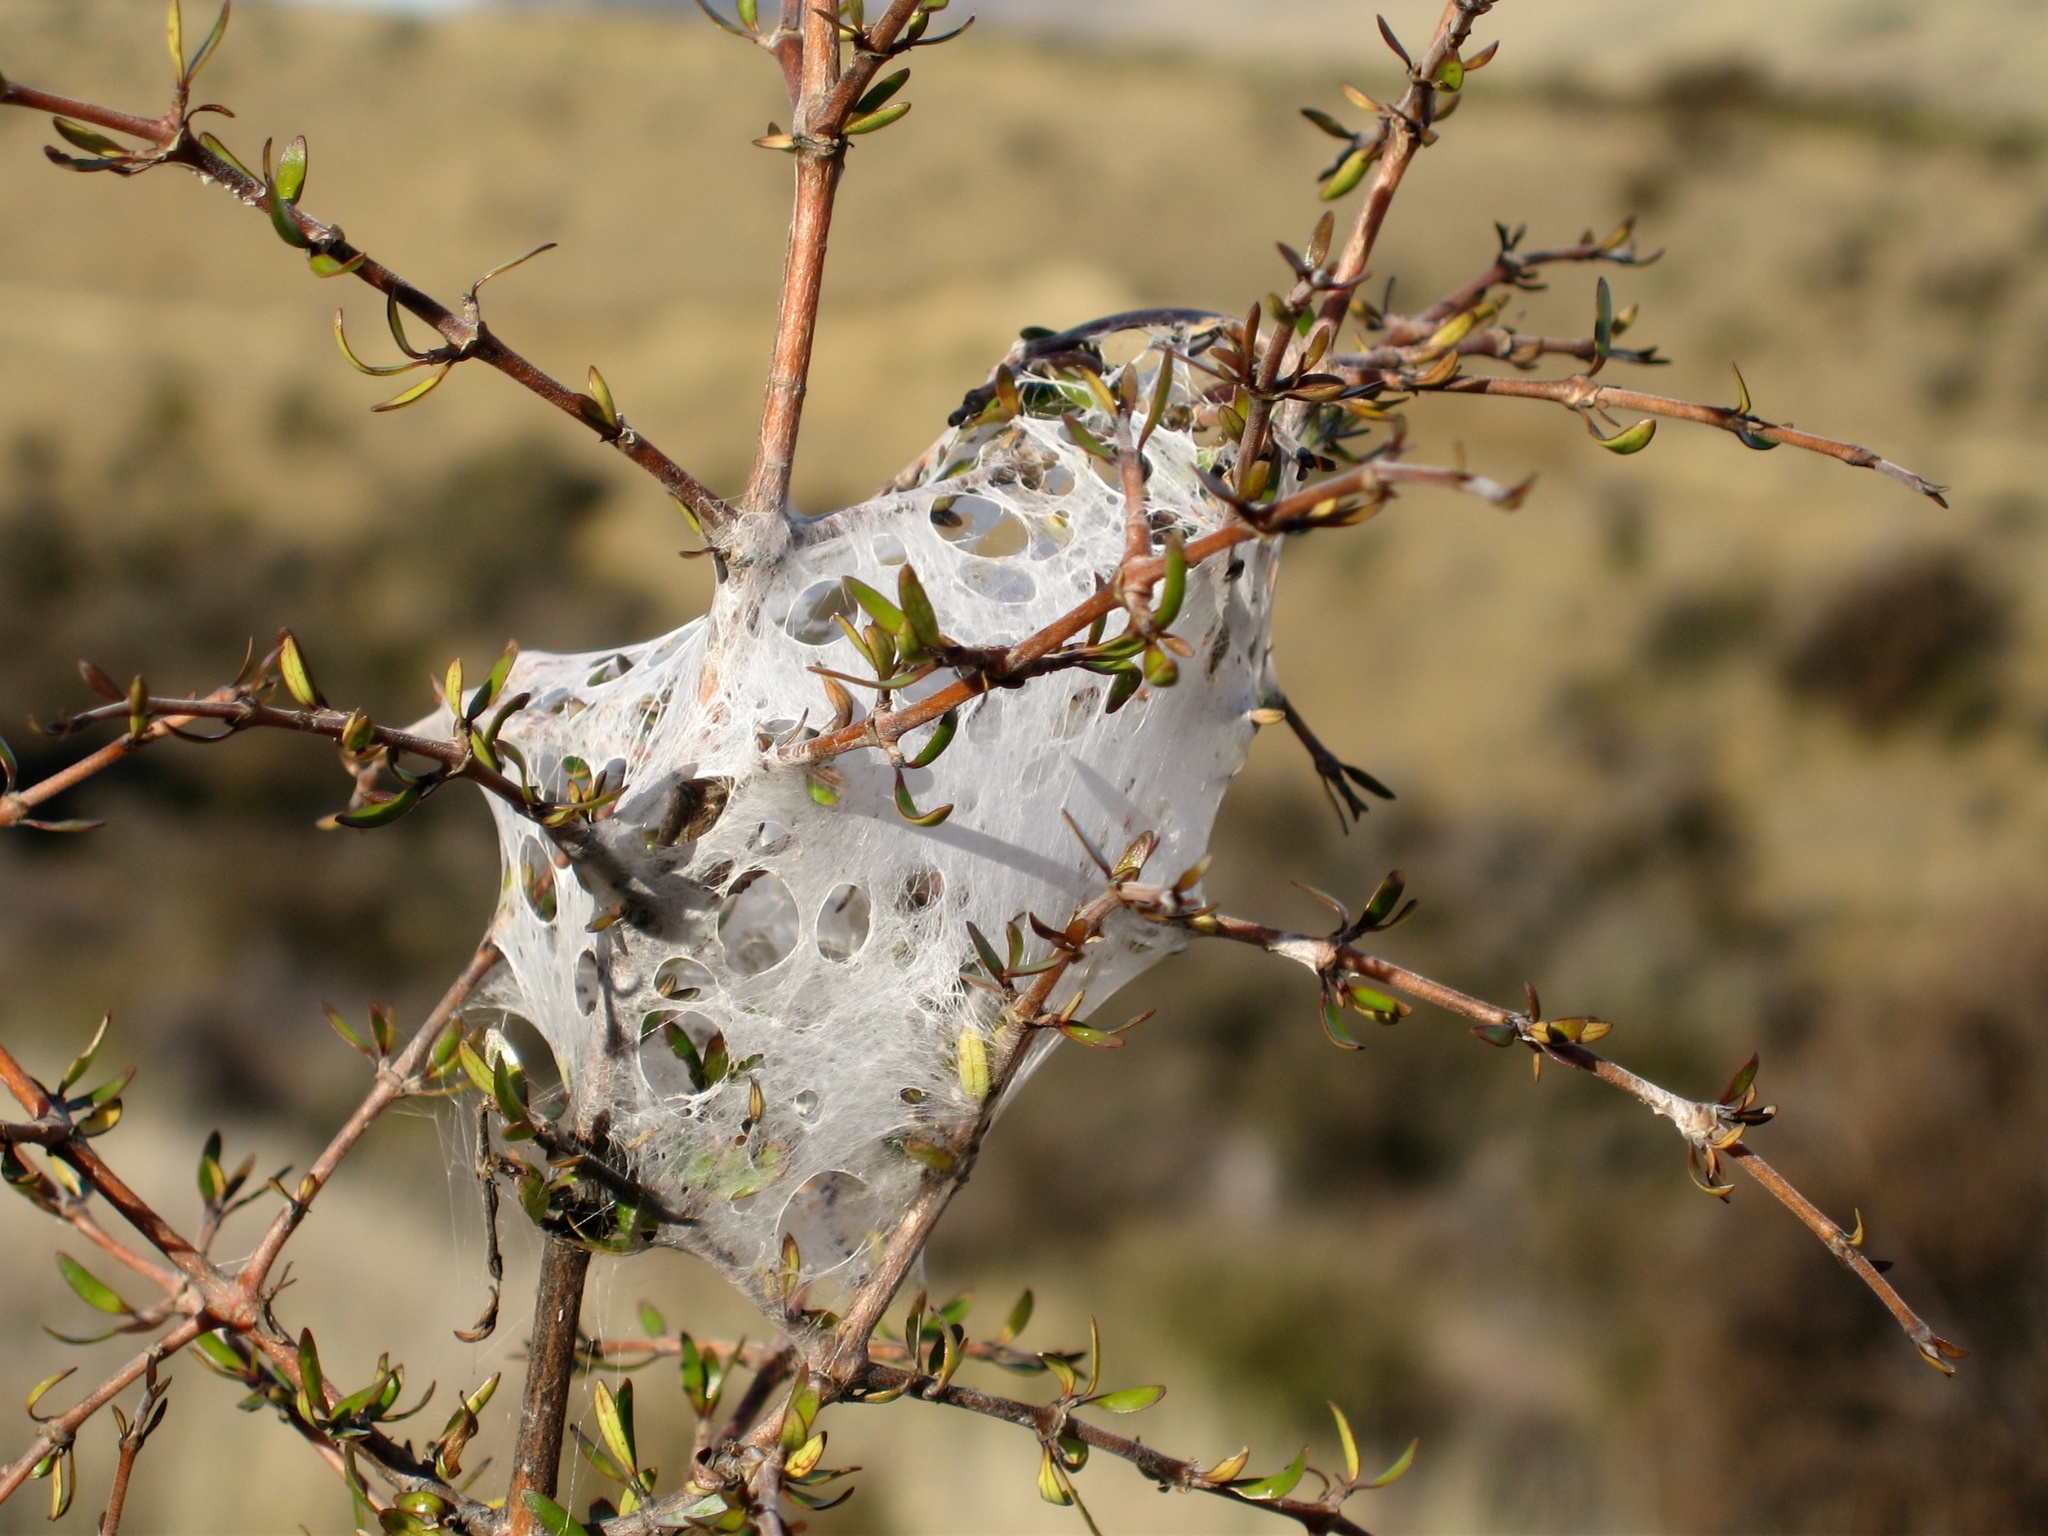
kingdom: Animalia
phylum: Arthropoda
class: Arachnida
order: Araneae
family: Pisauridae
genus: Dolomedes
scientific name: Dolomedes minor
